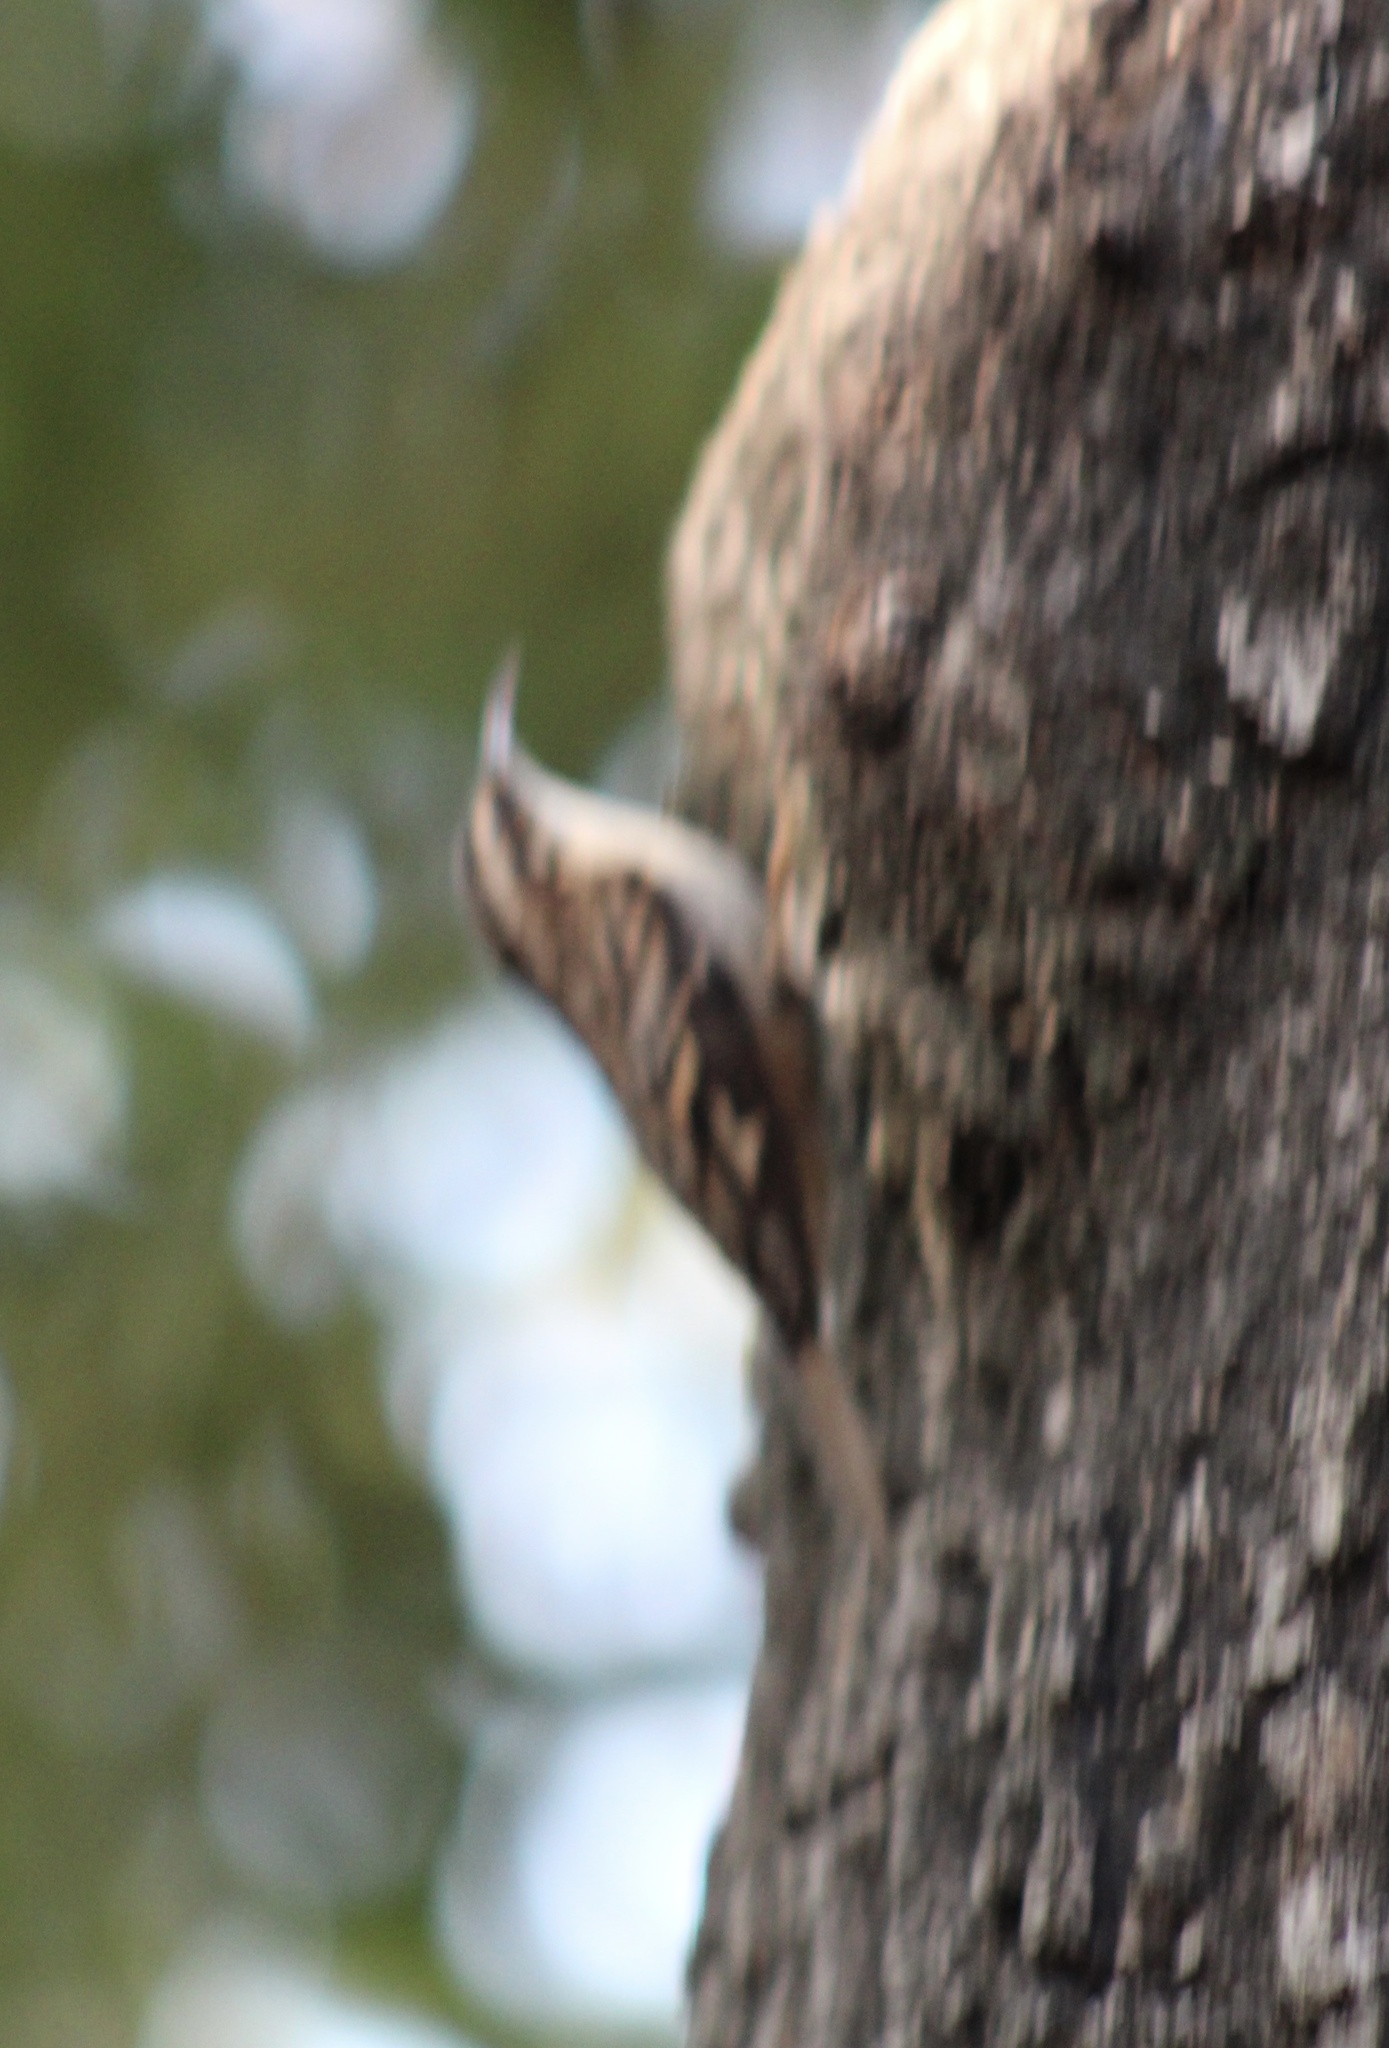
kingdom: Animalia
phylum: Chordata
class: Aves
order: Passeriformes
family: Certhiidae
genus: Certhia
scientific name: Certhia americana
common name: Brown creeper
